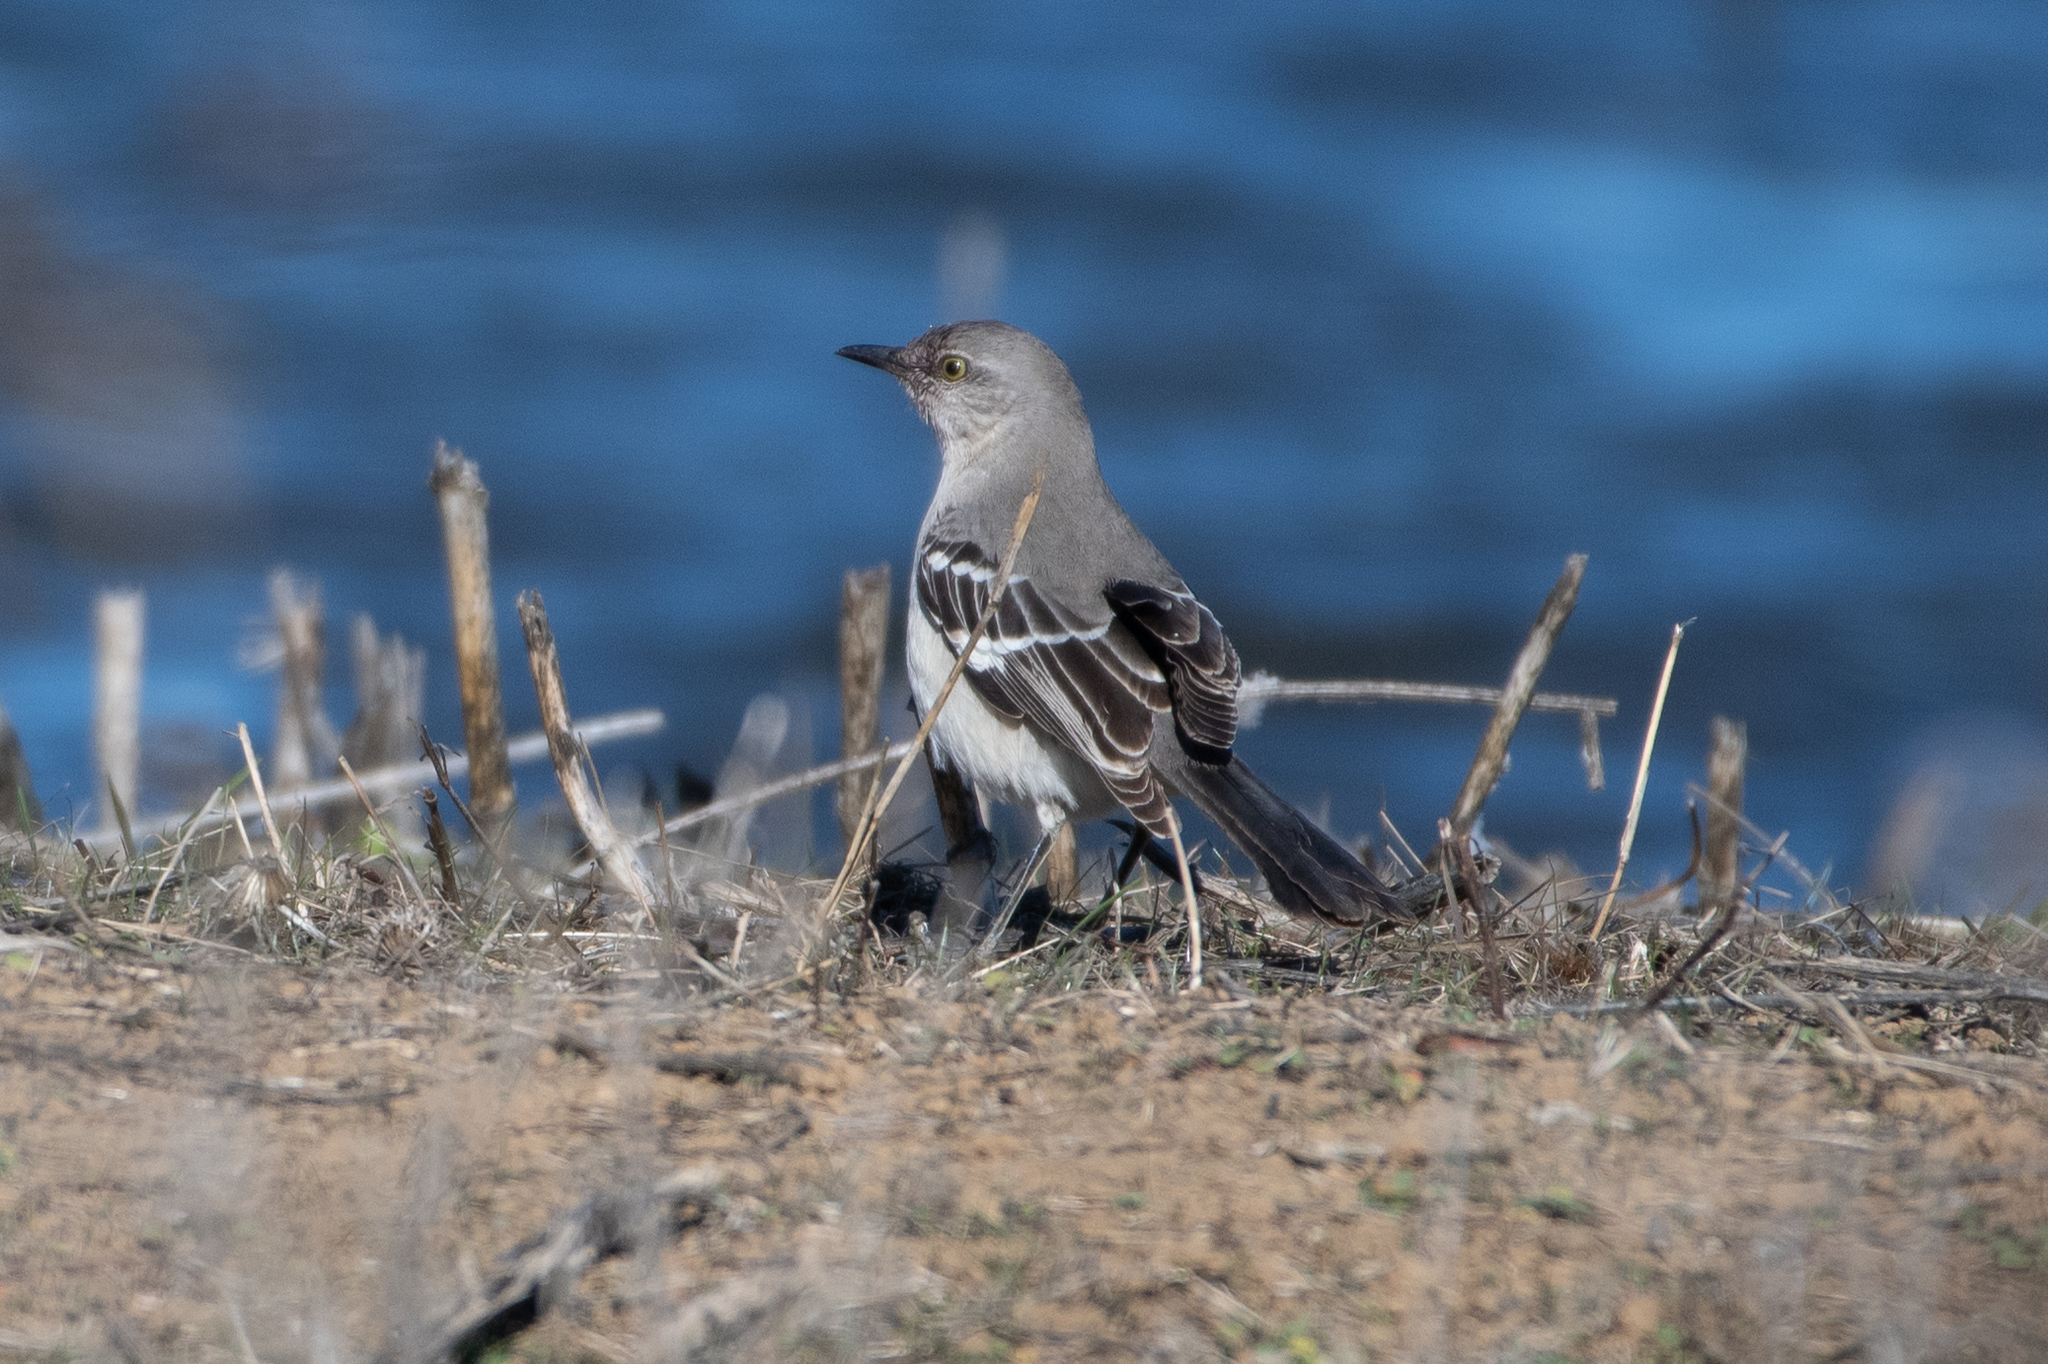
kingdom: Animalia
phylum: Chordata
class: Aves
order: Passeriformes
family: Mimidae
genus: Mimus
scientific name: Mimus polyglottos
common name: Northern mockingbird
